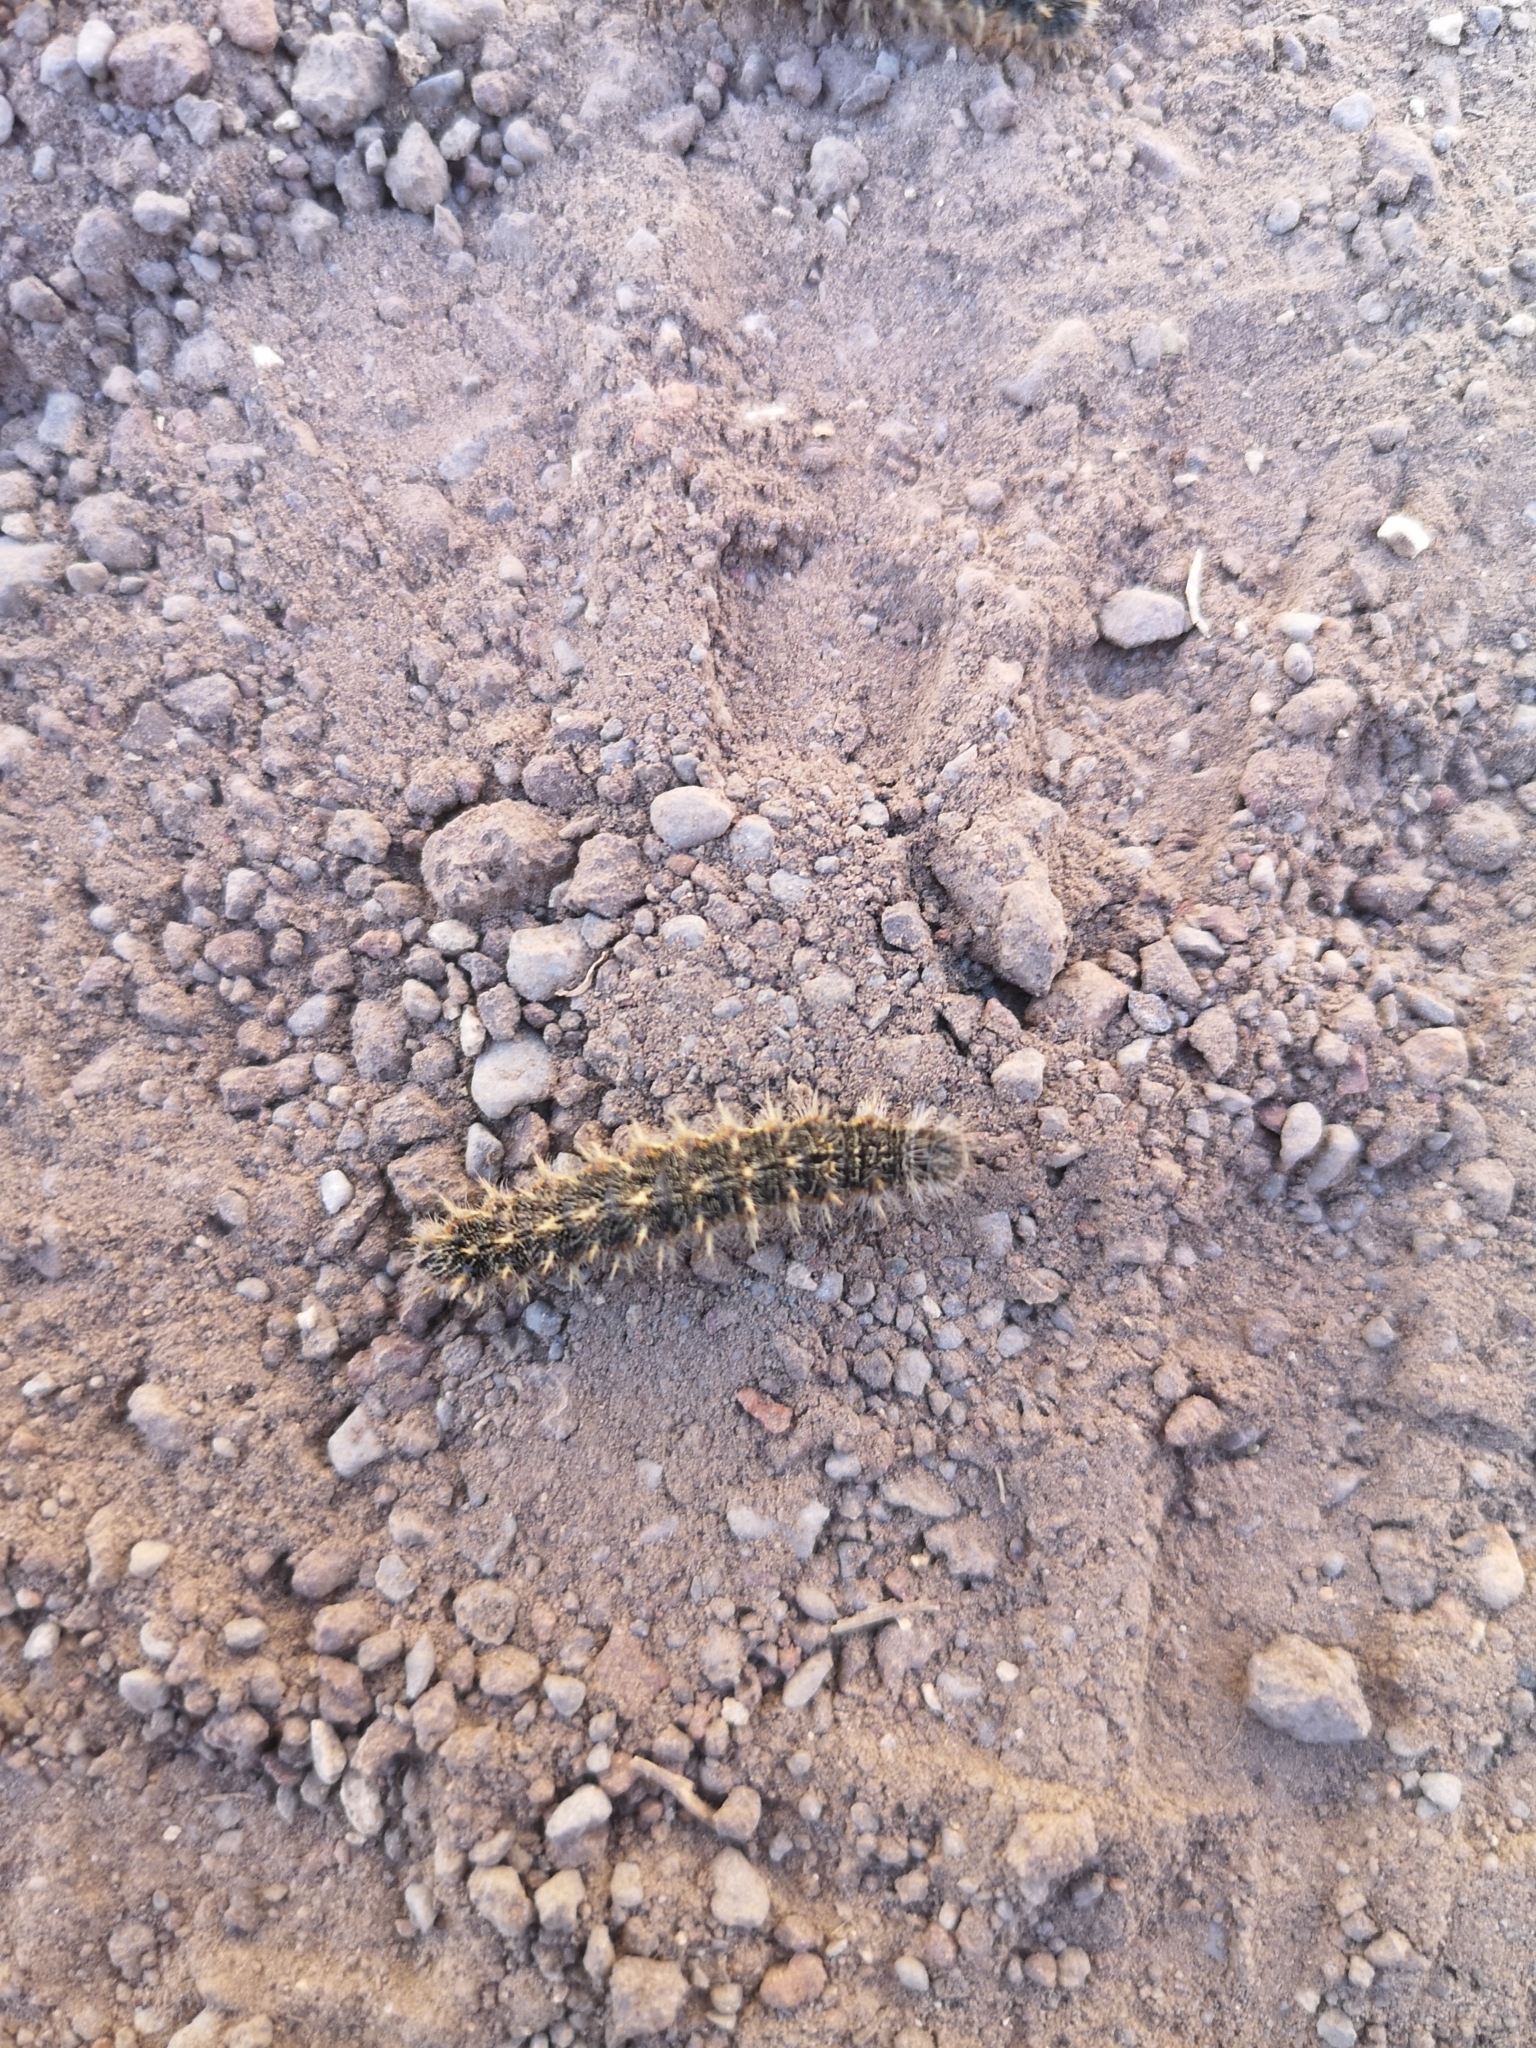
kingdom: Animalia
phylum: Arthropoda
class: Insecta
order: Lepidoptera
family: Nymphalidae
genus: Vanessa
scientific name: Vanessa vulcania
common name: Canary red admiral
